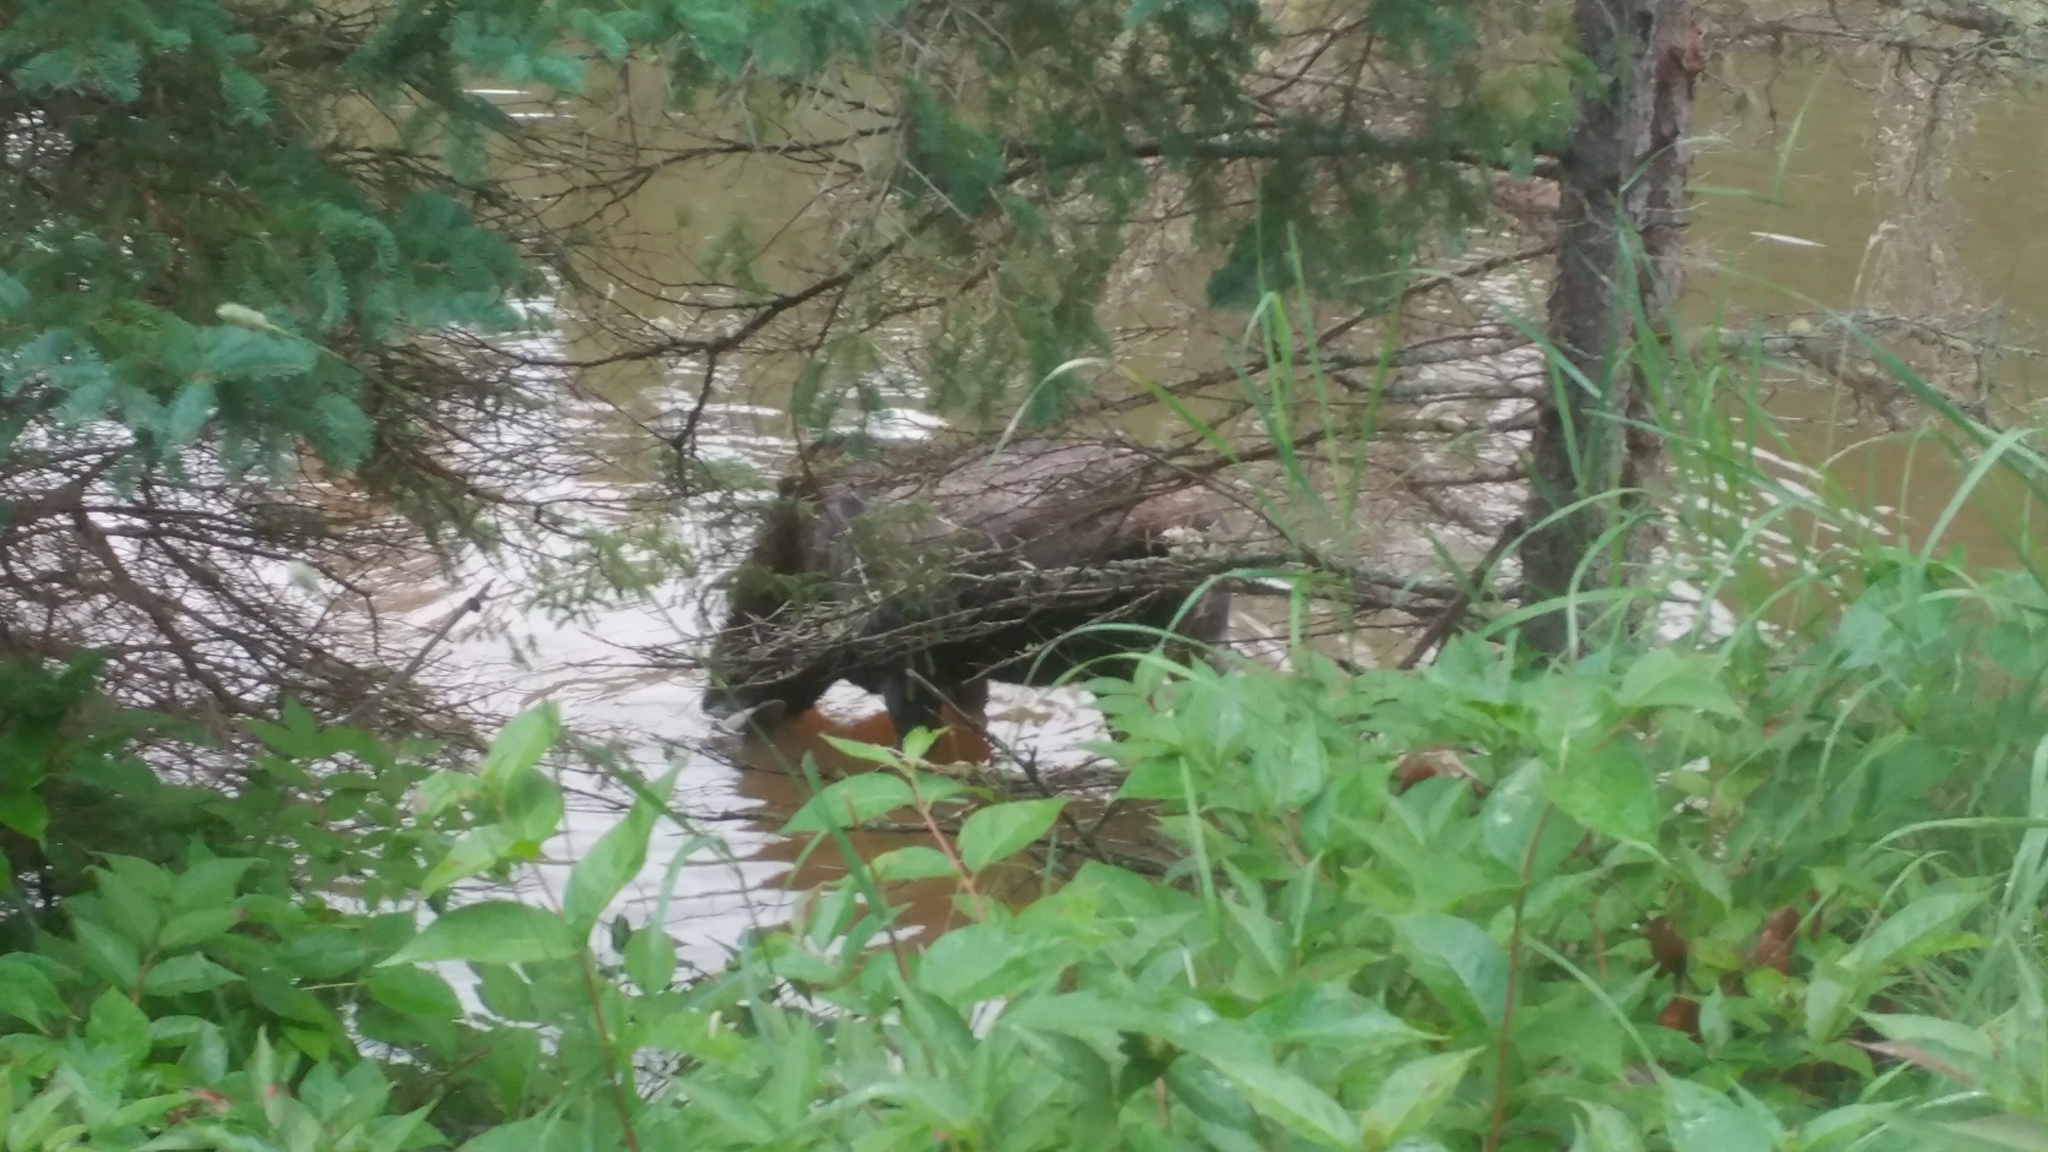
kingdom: Animalia
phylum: Chordata
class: Mammalia
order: Artiodactyla
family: Cervidae
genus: Alces
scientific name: Alces alces
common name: Moose
